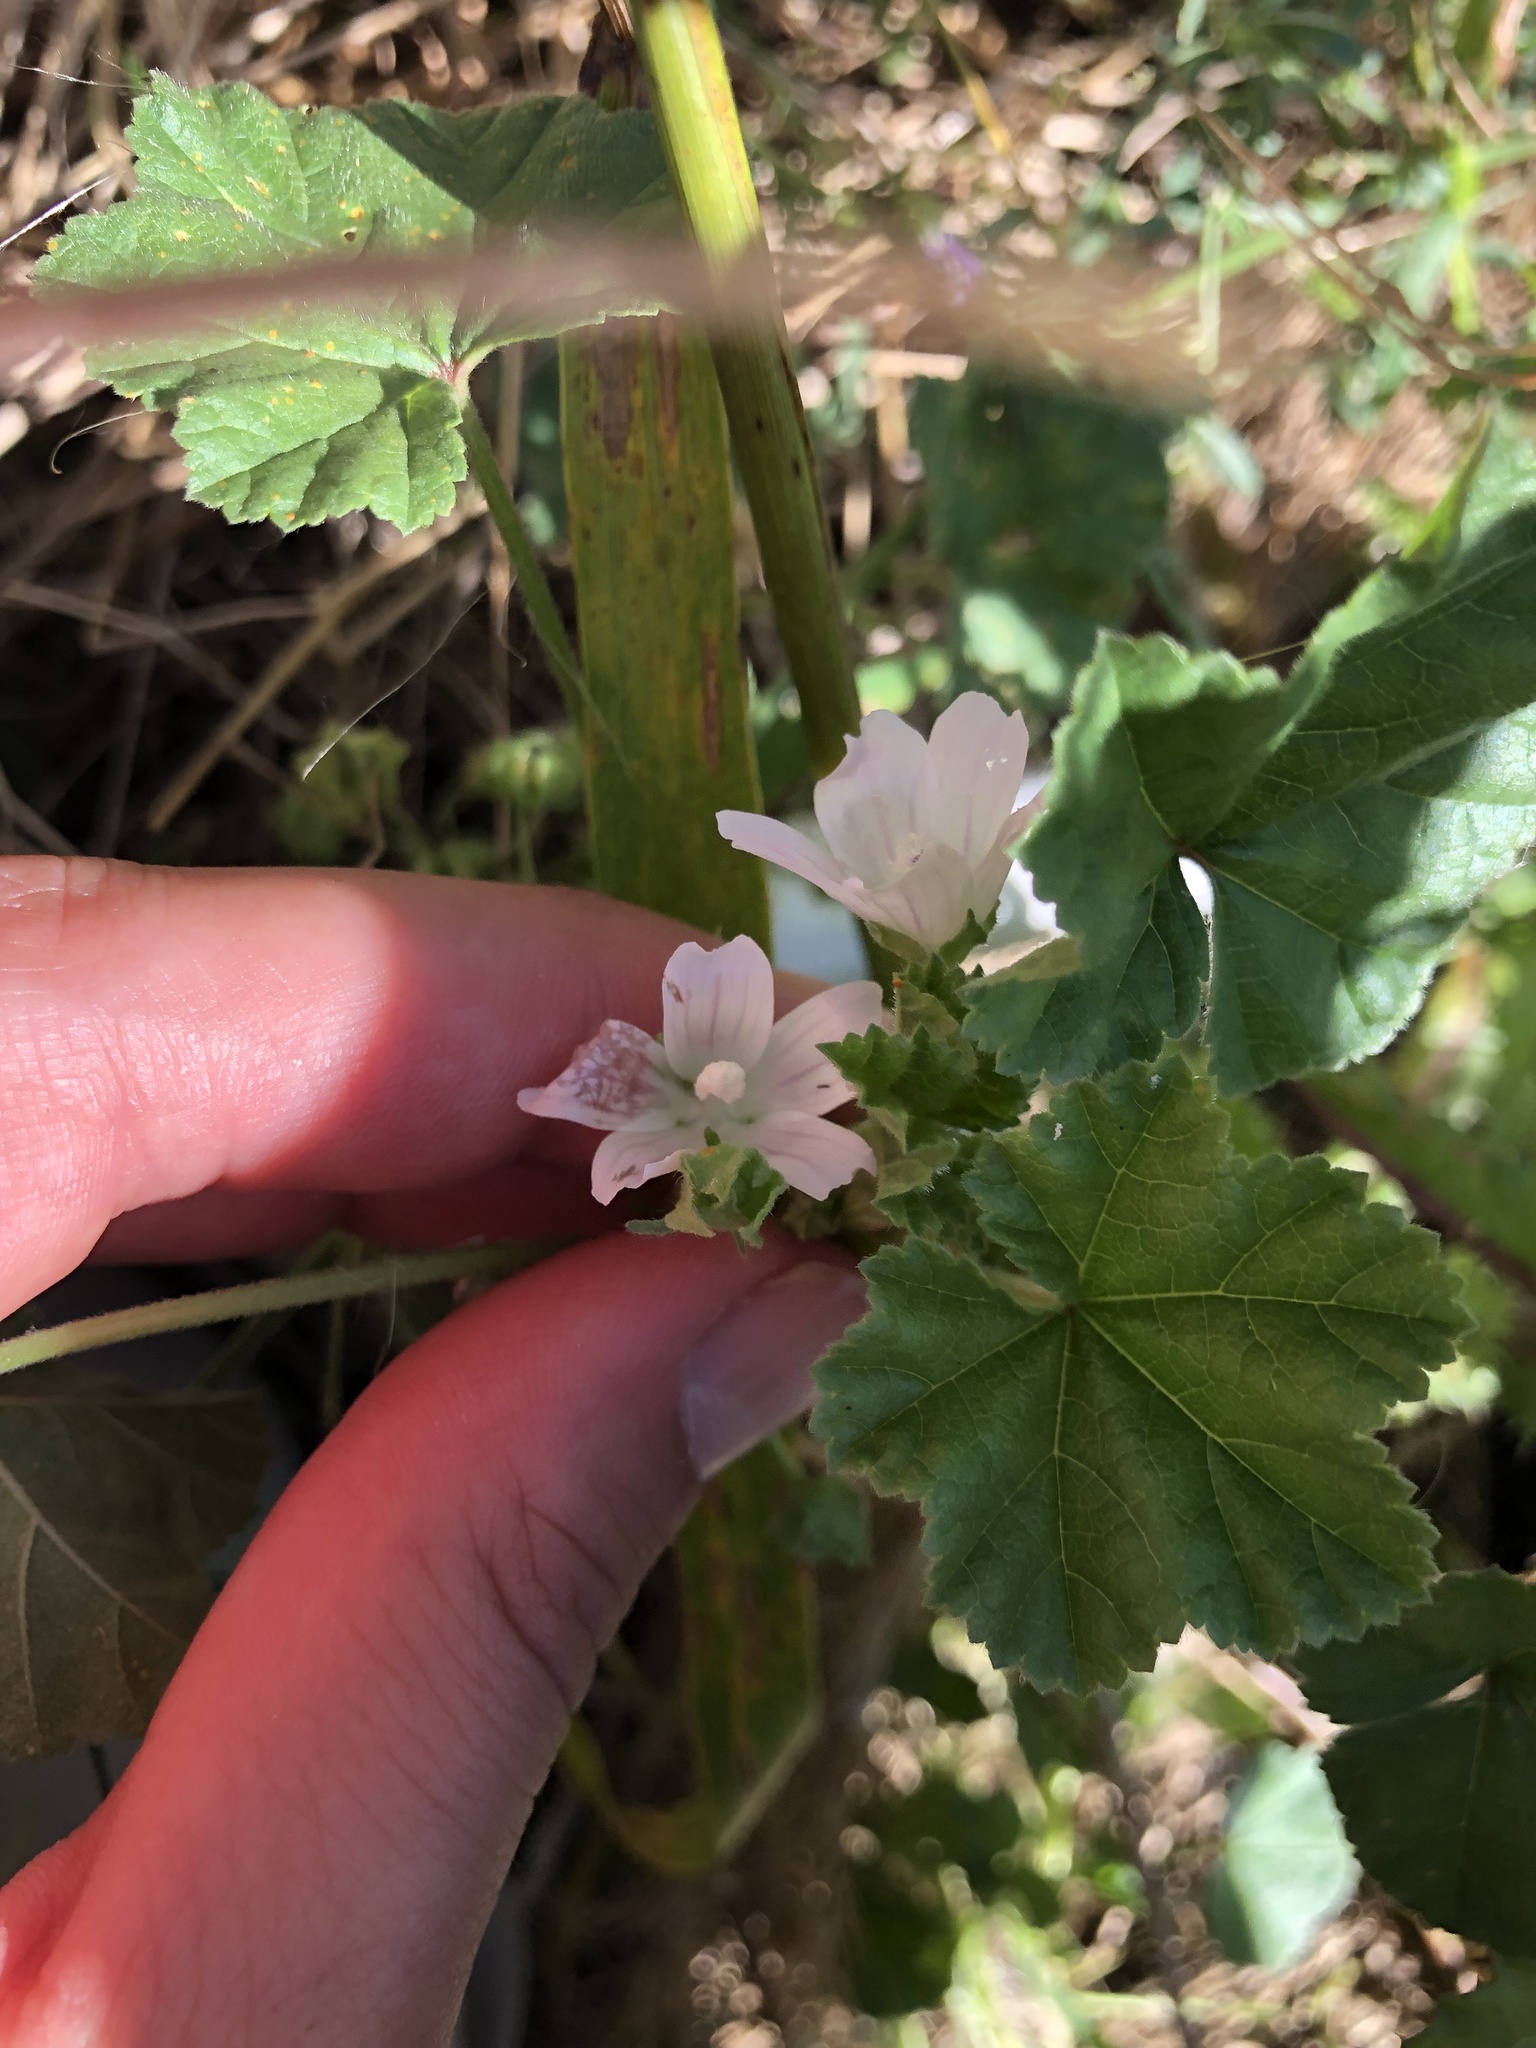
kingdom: Plantae
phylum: Tracheophyta
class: Magnoliopsida
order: Malvales
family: Malvaceae
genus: Malva
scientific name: Malva neglecta
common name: Common mallow
